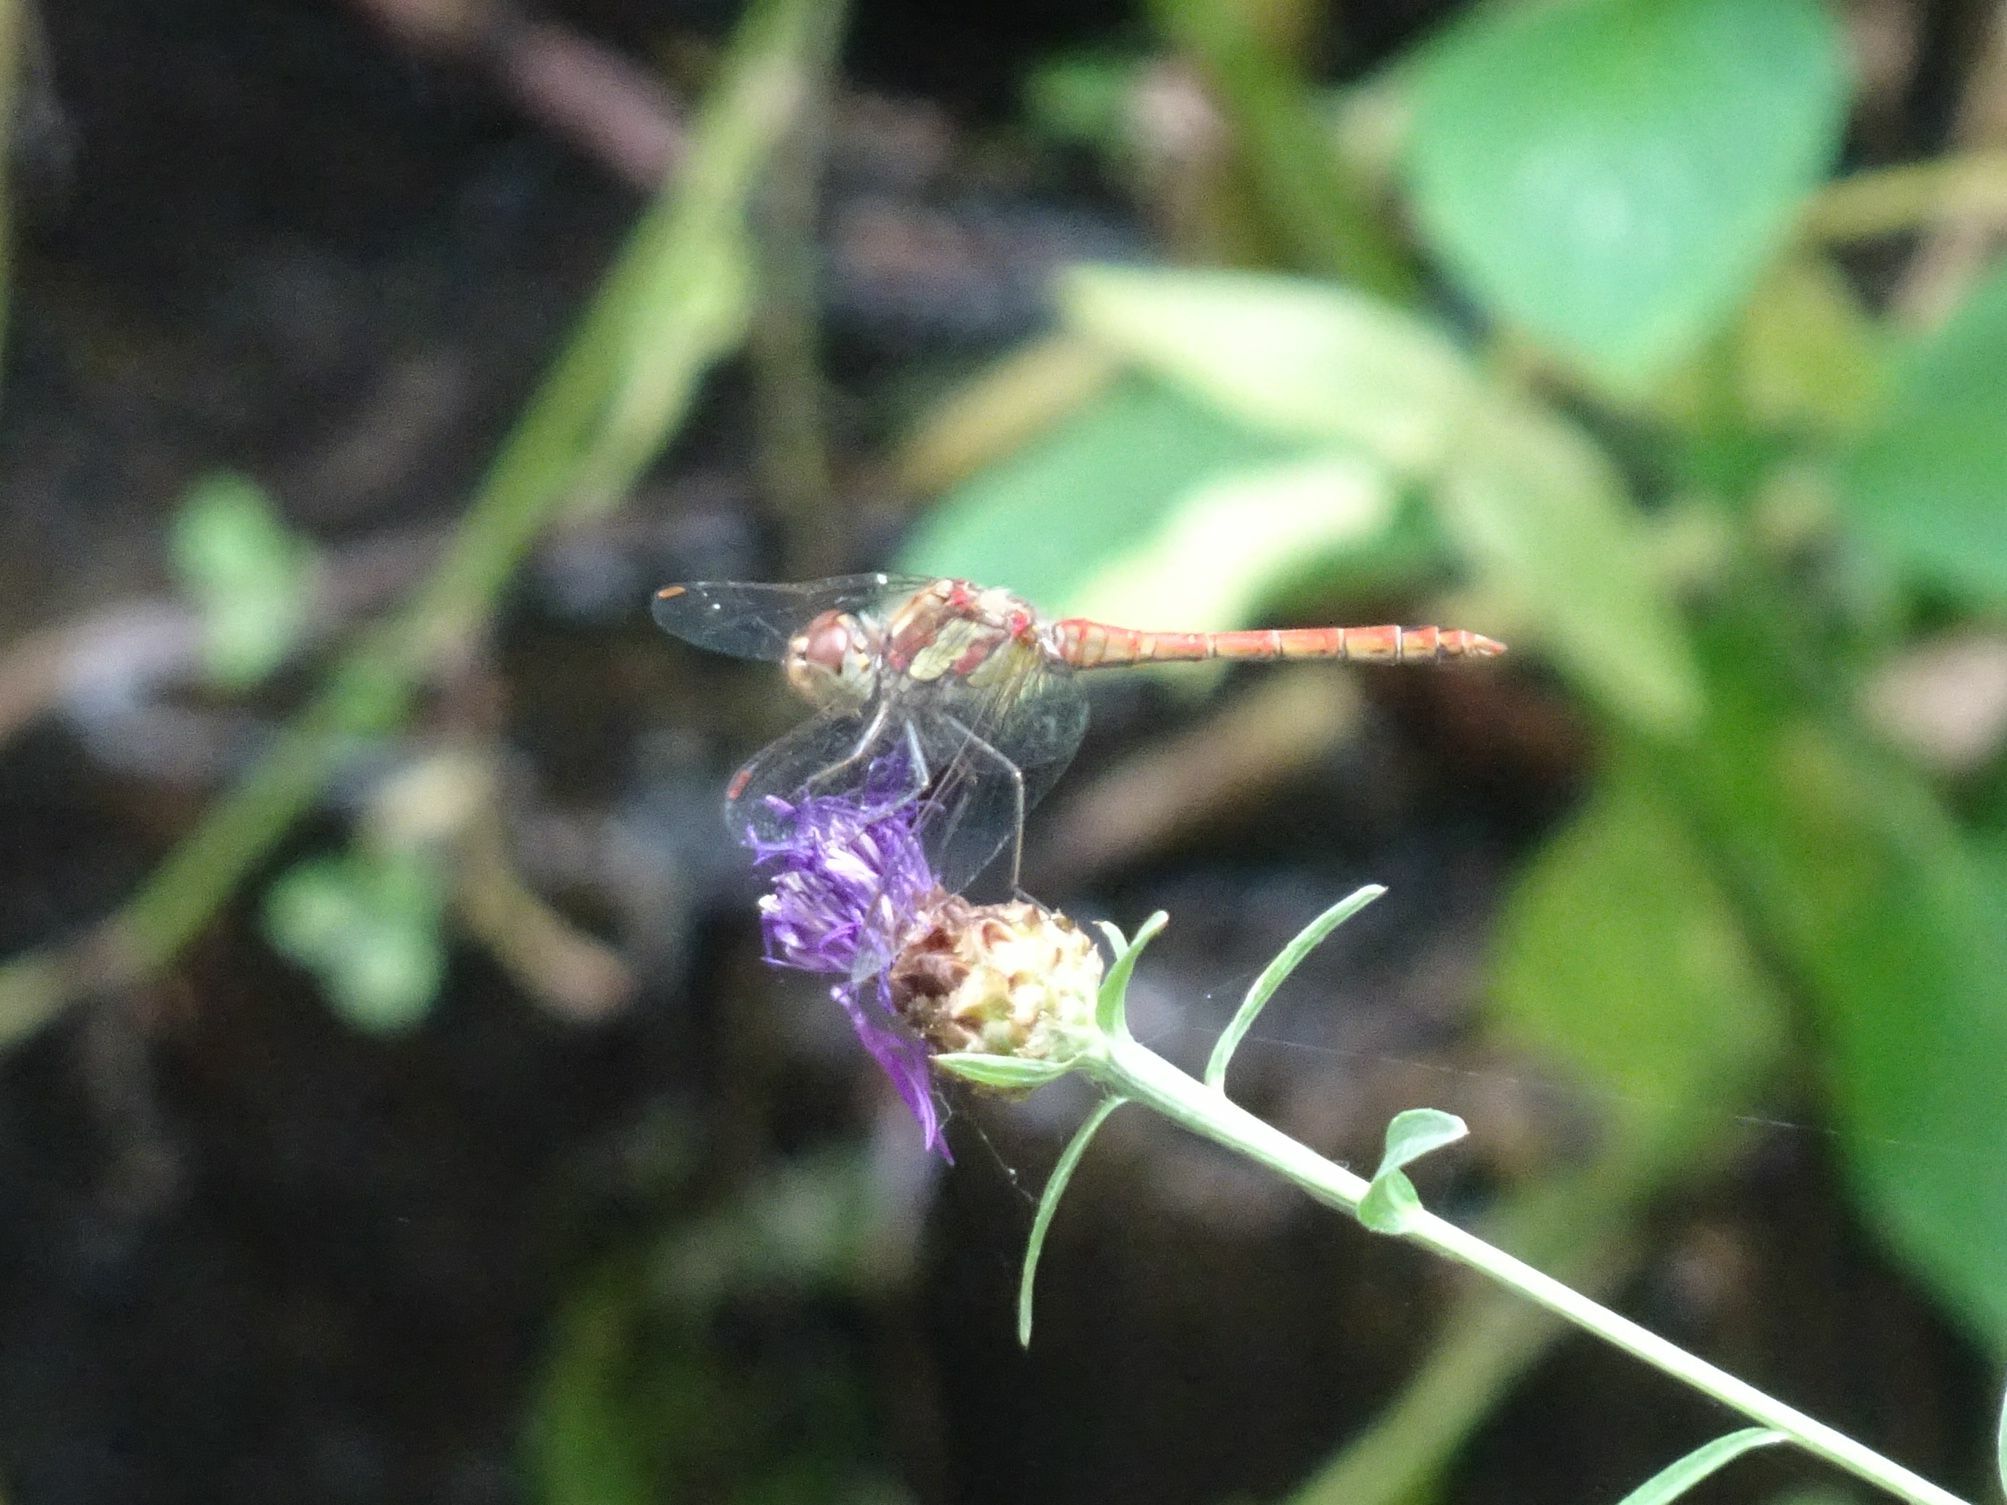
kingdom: Animalia
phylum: Arthropoda
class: Insecta
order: Odonata
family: Libellulidae
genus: Sympetrum
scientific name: Sympetrum striolatum
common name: Common darter
